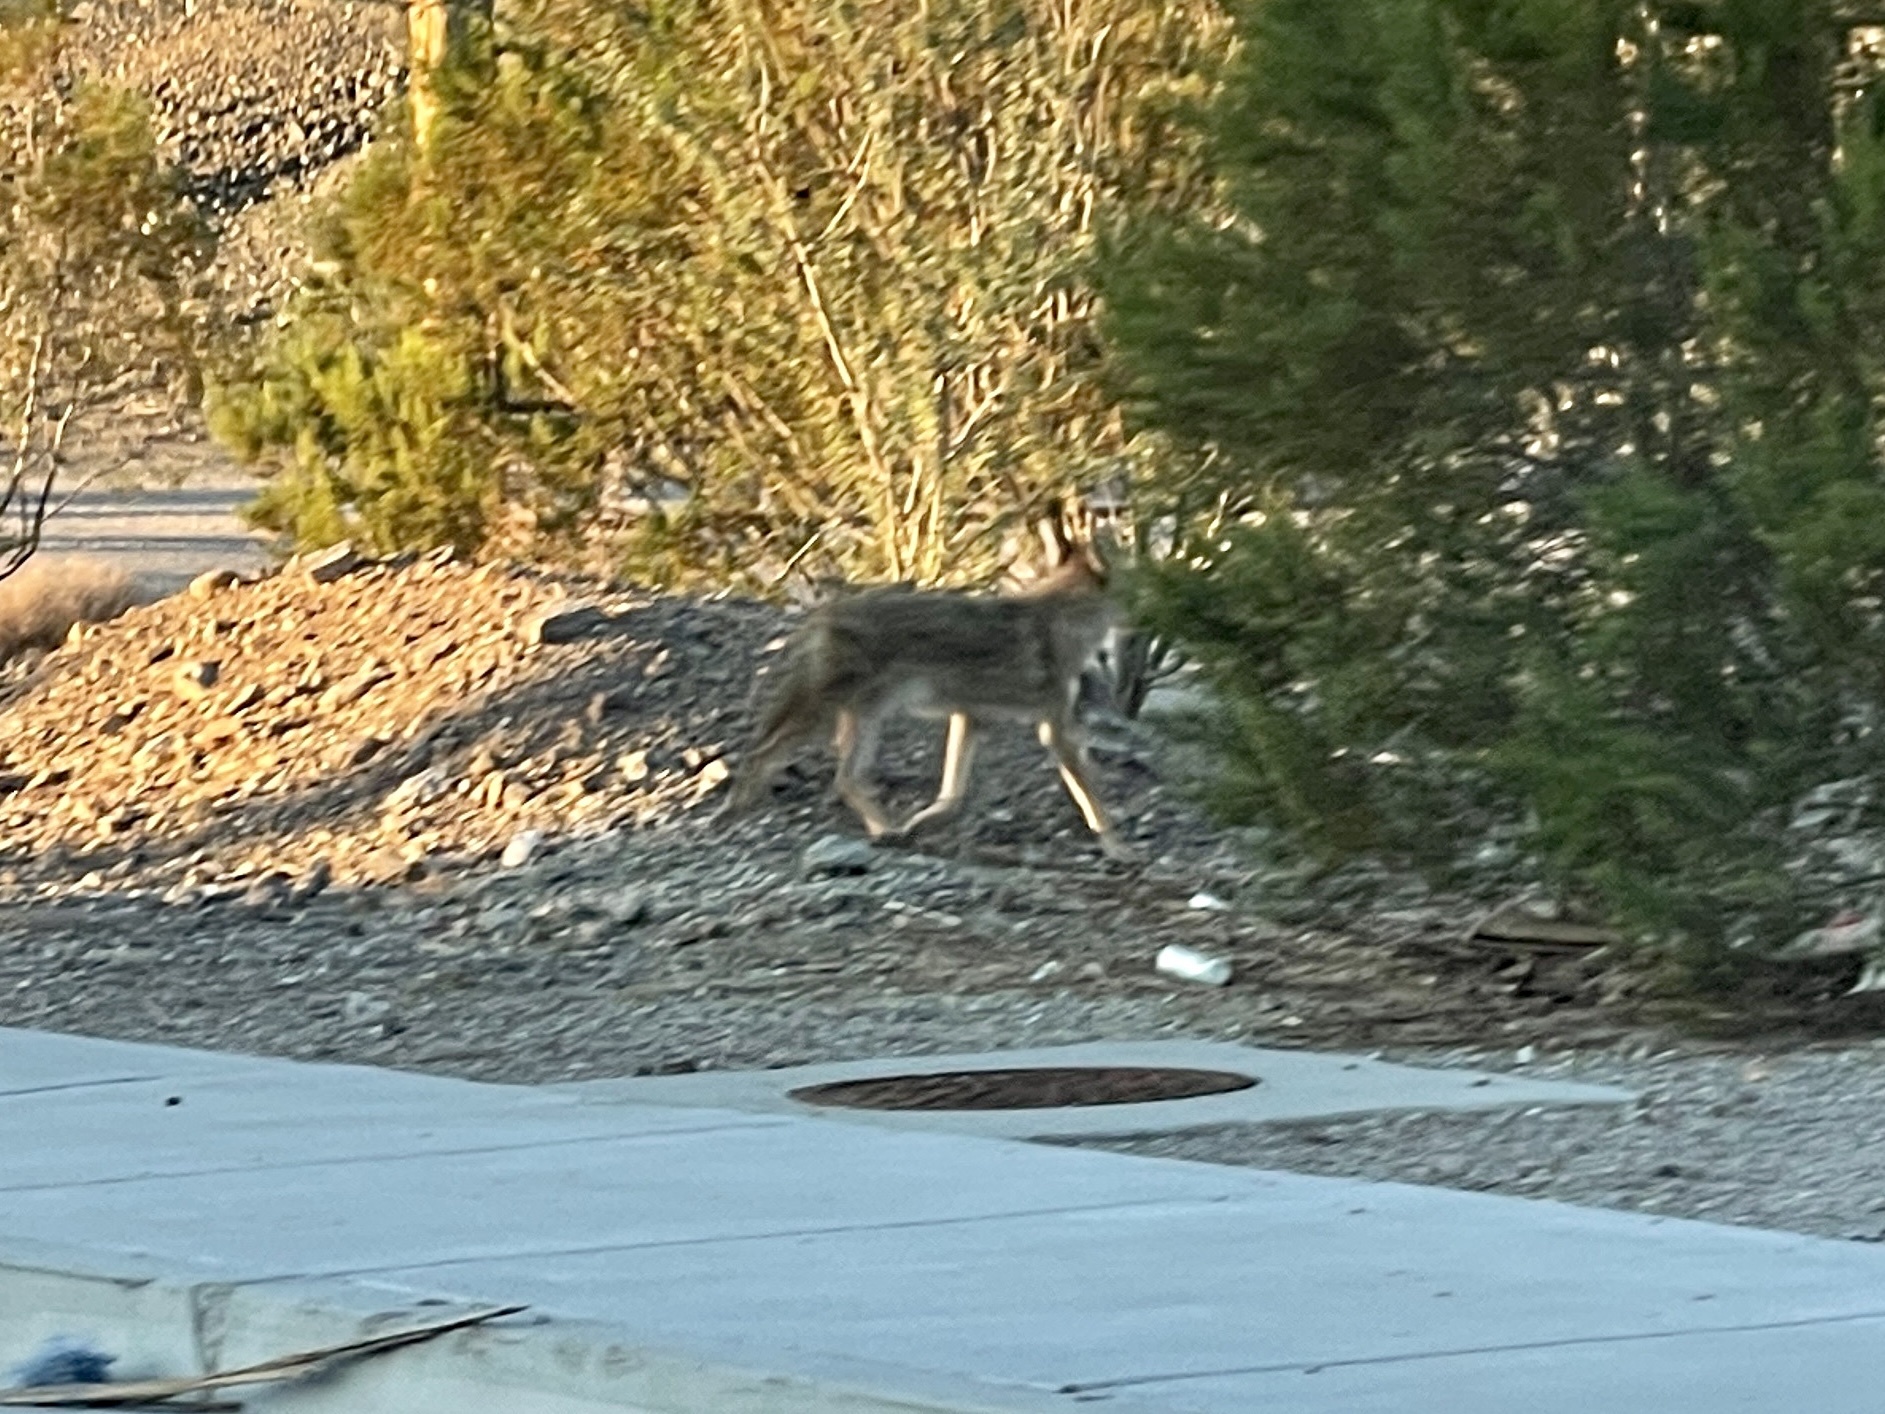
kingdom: Animalia
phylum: Chordata
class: Mammalia
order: Carnivora
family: Canidae
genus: Canis
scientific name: Canis latrans
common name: Coyote
